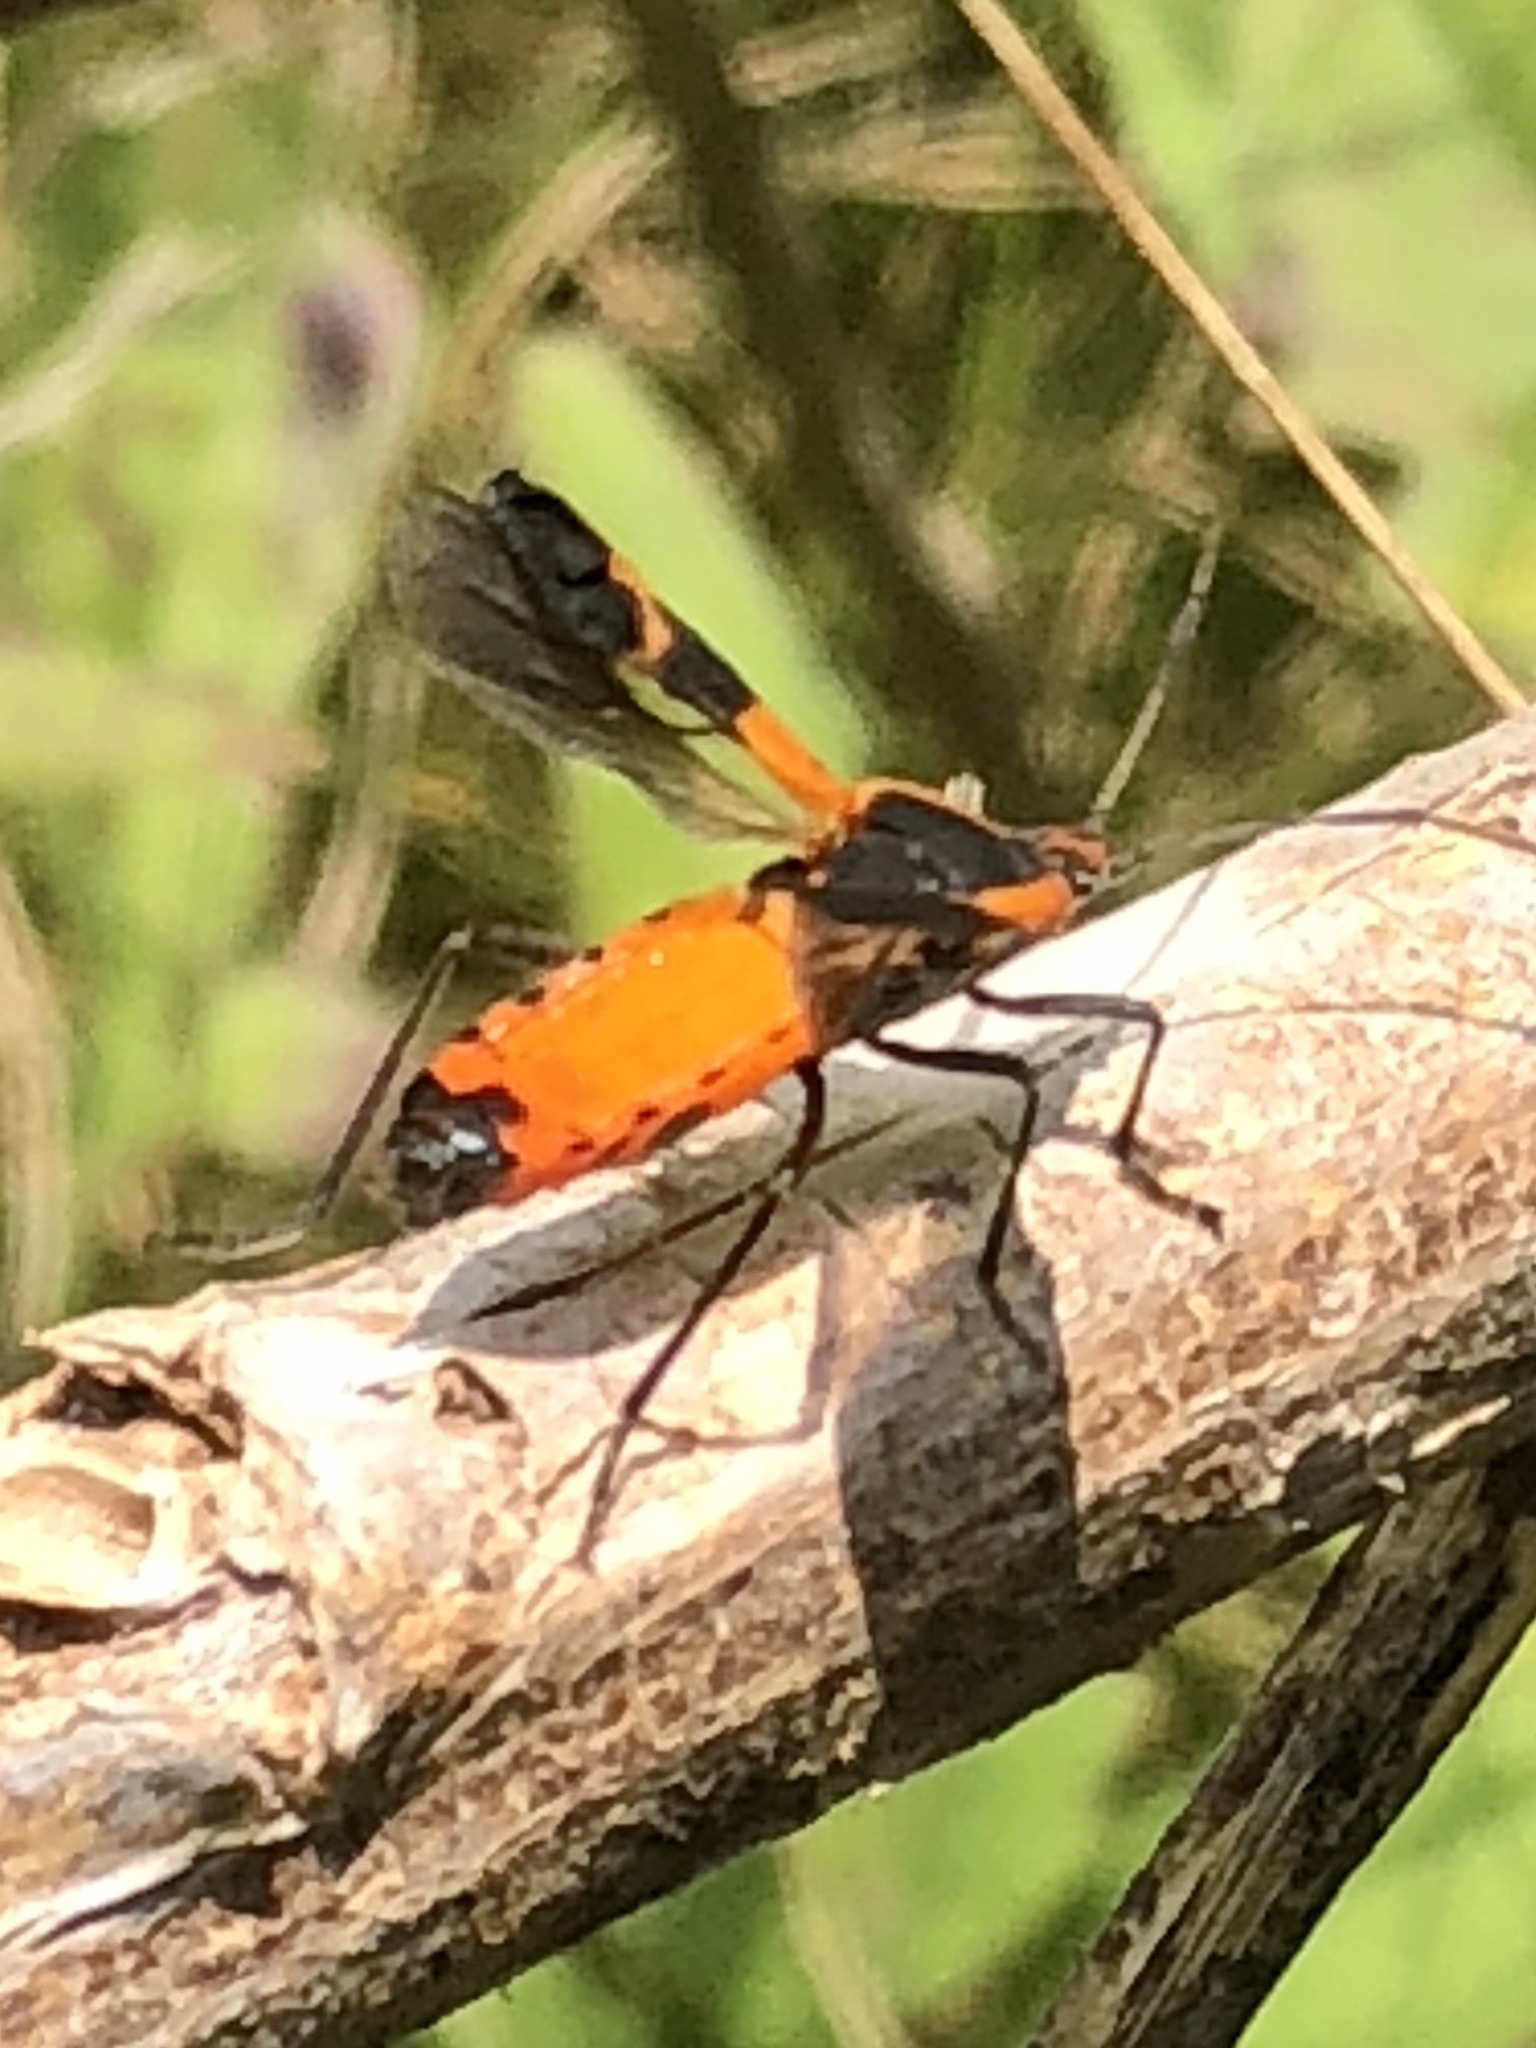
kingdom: Animalia
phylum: Arthropoda
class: Insecta
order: Hemiptera
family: Lygaeidae
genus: Oncopeltus
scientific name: Oncopeltus fasciatus
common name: Large milkweed bug
